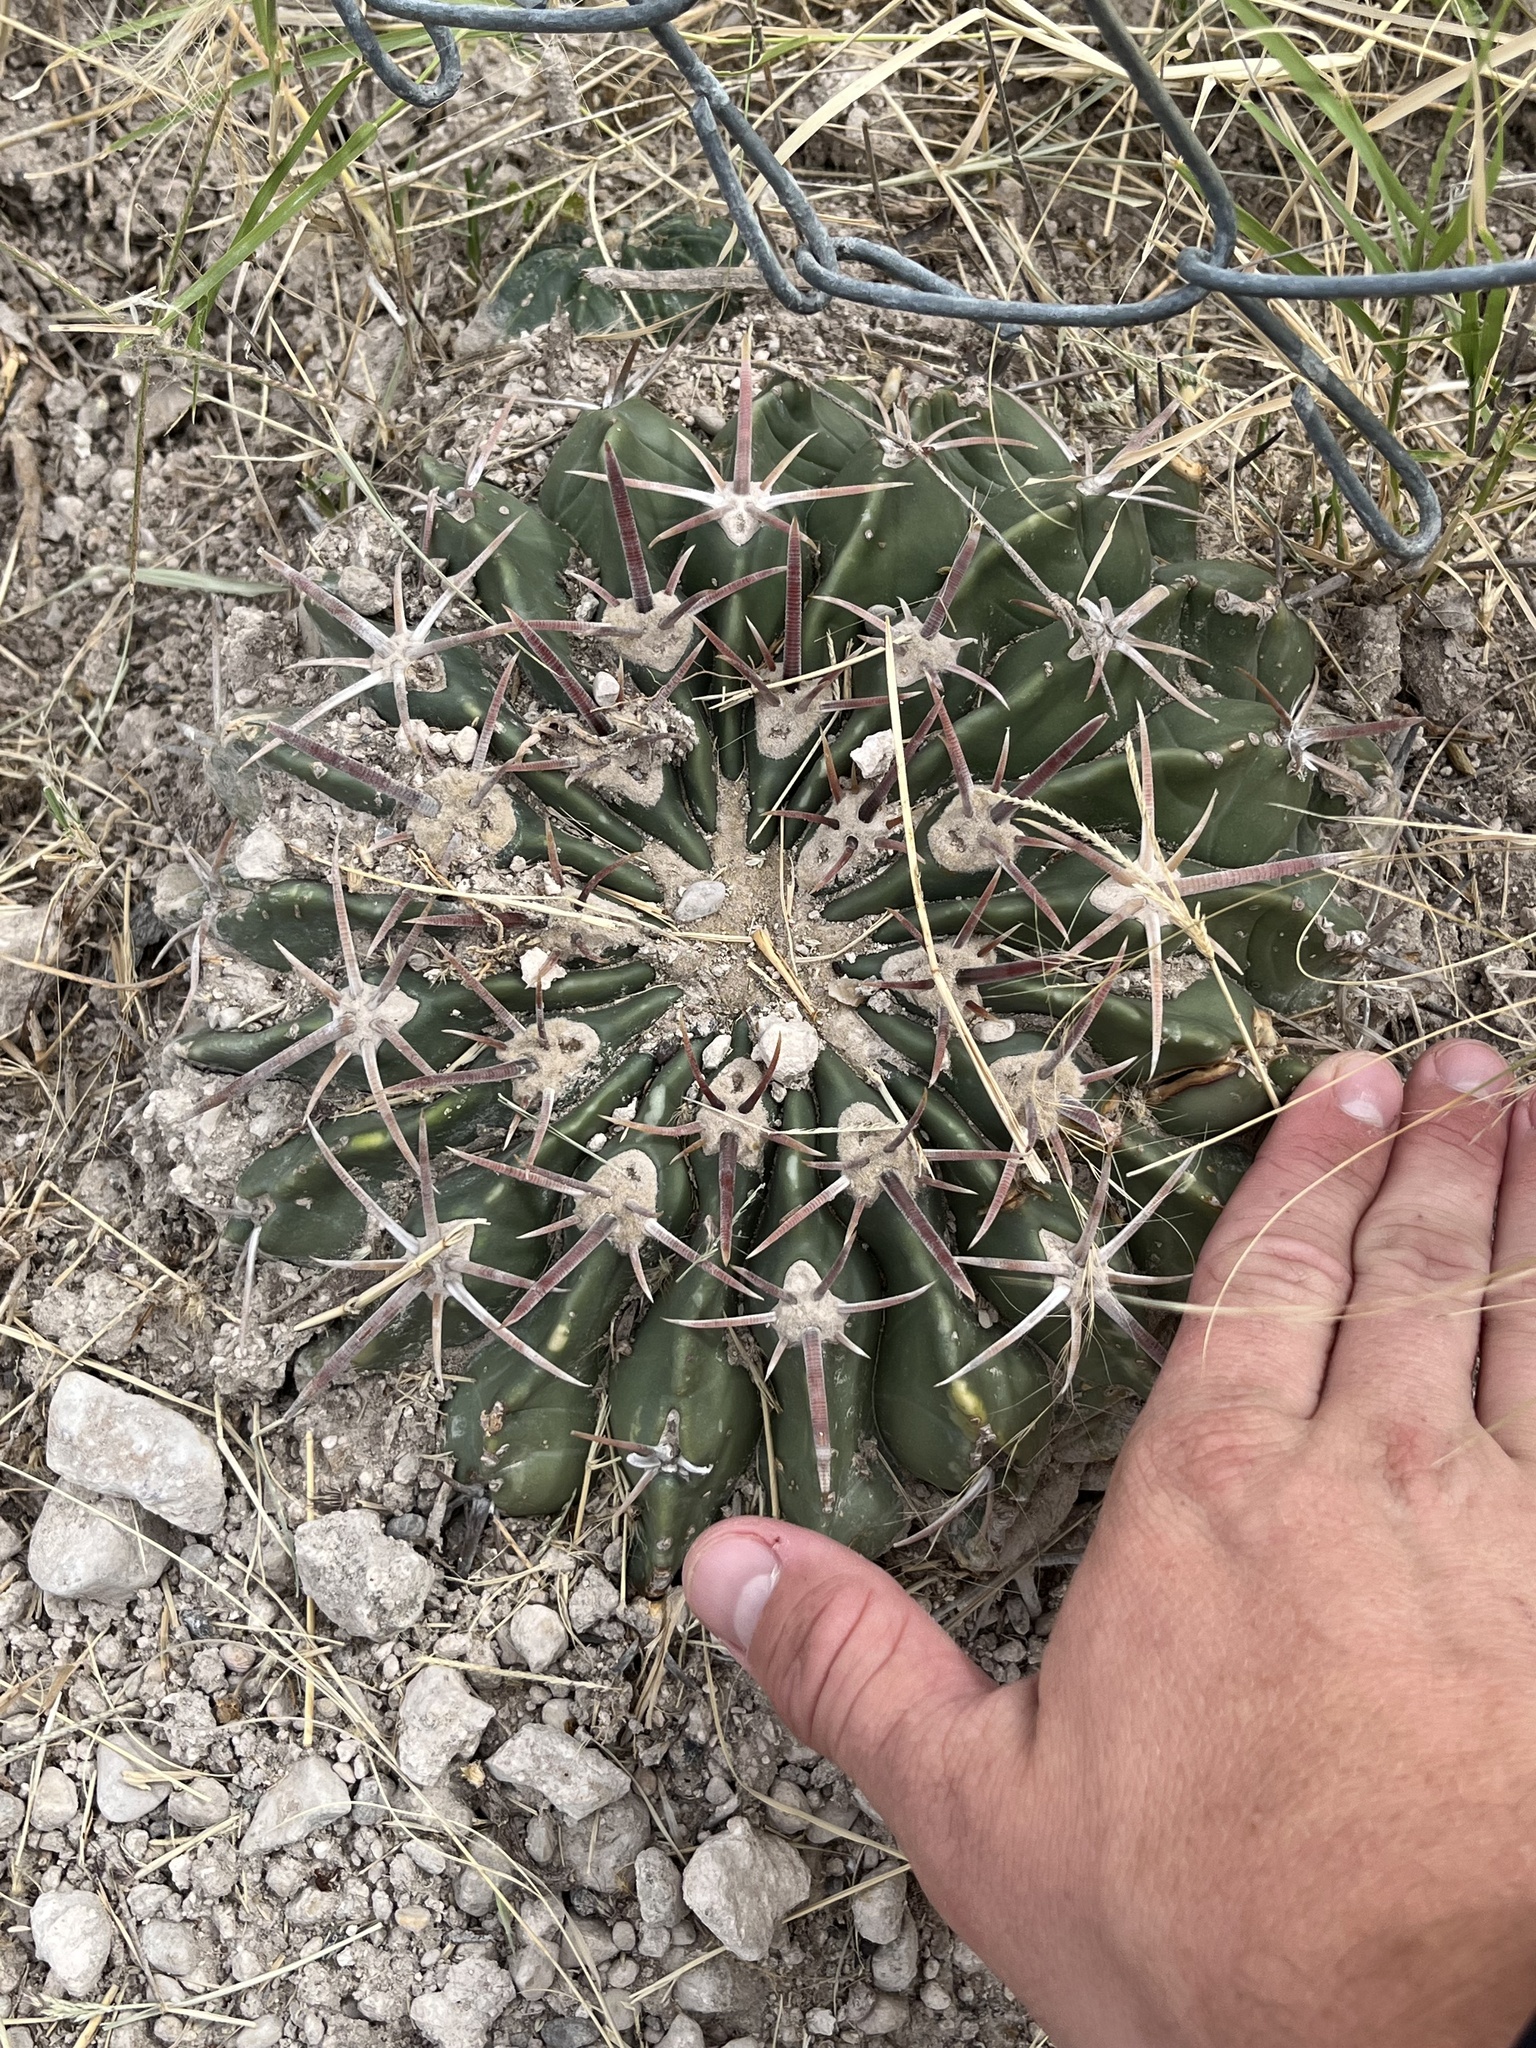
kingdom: Plantae
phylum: Tracheophyta
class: Magnoliopsida
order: Caryophyllales
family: Cactaceae
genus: Echinocactus
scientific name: Echinocactus texensis
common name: Devil's pincushion
